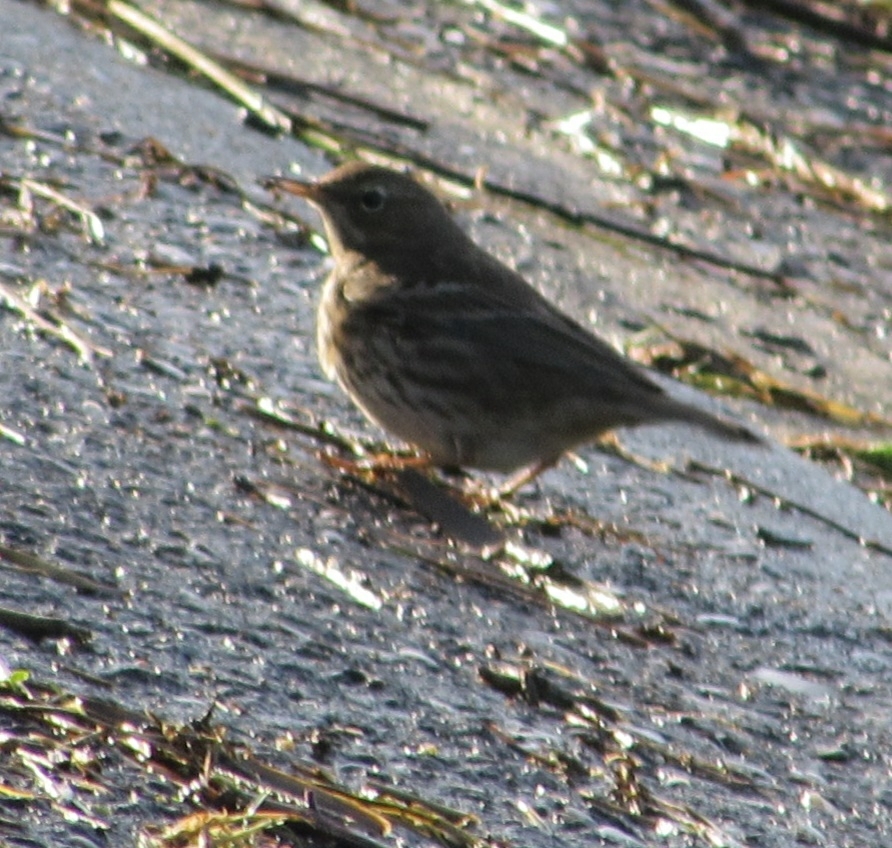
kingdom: Animalia
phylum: Chordata
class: Aves
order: Passeriformes
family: Motacillidae
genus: Anthus
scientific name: Anthus petrosus
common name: Eurasian rock pipit
